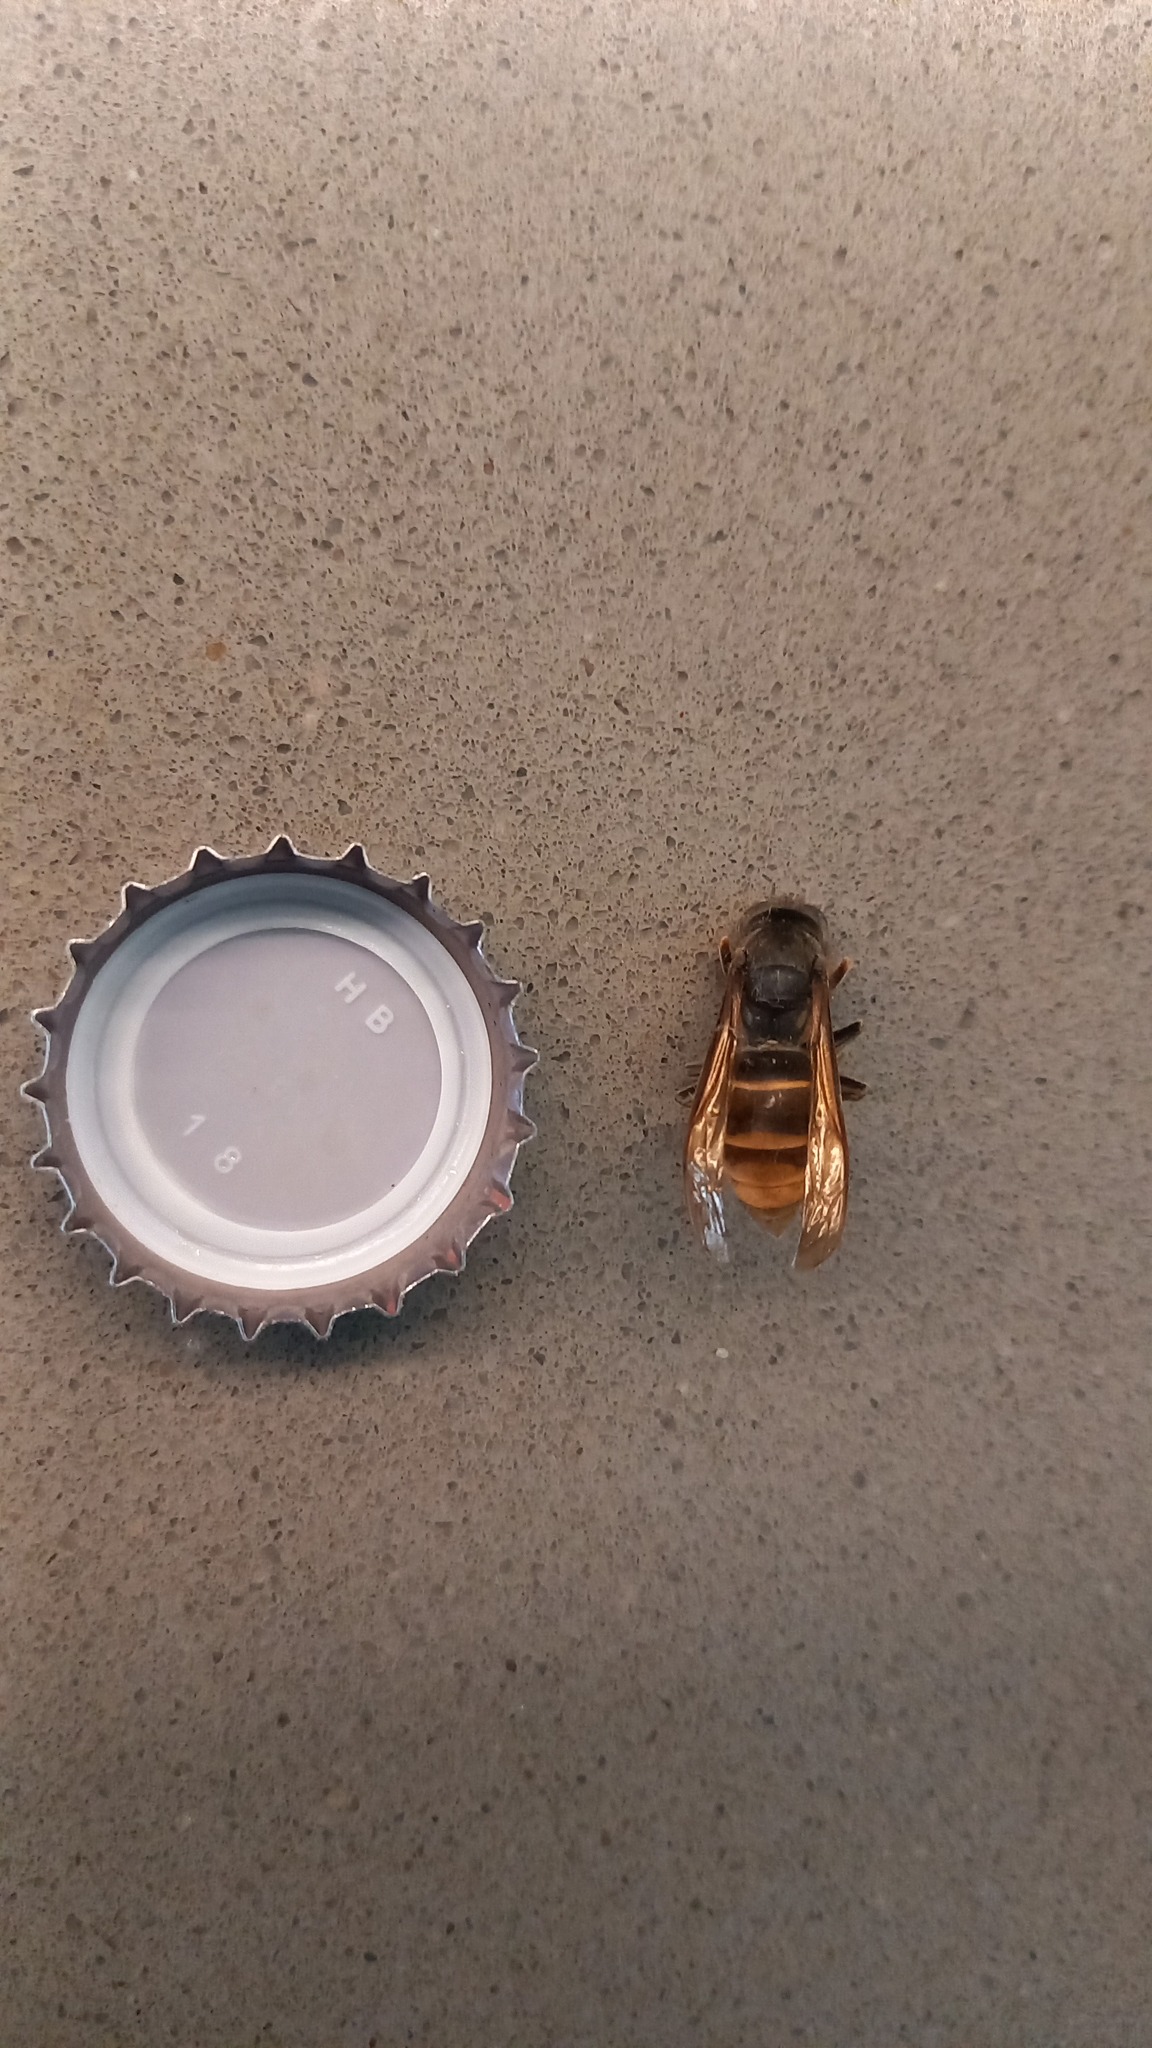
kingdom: Animalia
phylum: Arthropoda
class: Insecta
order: Hymenoptera
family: Vespidae
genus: Vespa
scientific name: Vespa velutina
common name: Asian hornet
